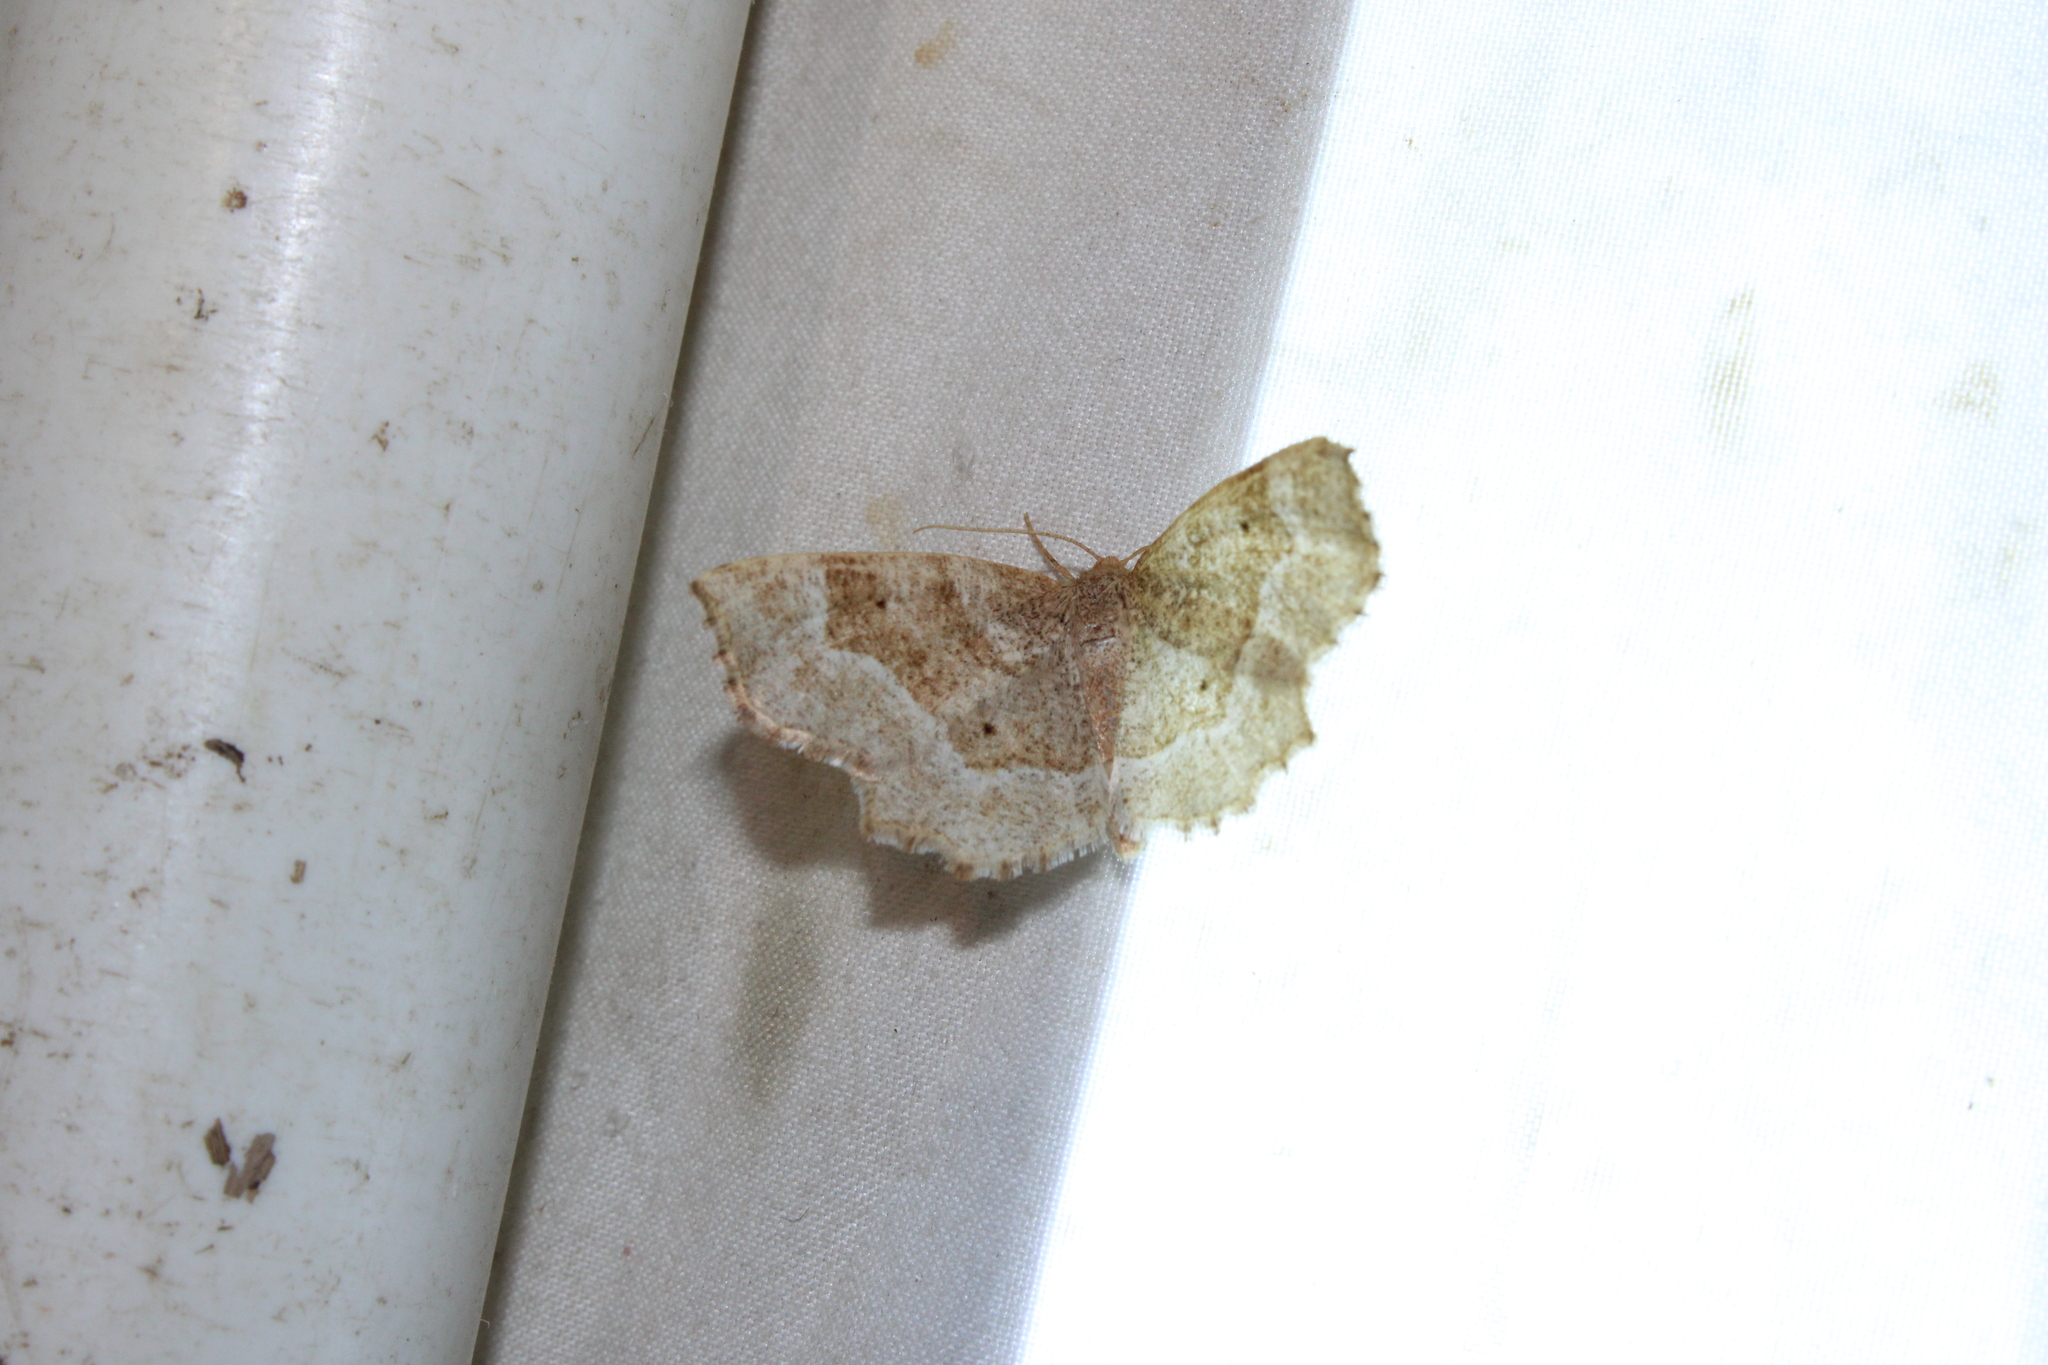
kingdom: Animalia
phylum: Arthropoda
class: Insecta
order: Lepidoptera
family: Geometridae
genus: Metarranthis
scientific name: Metarranthis indeclinata
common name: Pale metarranthis
